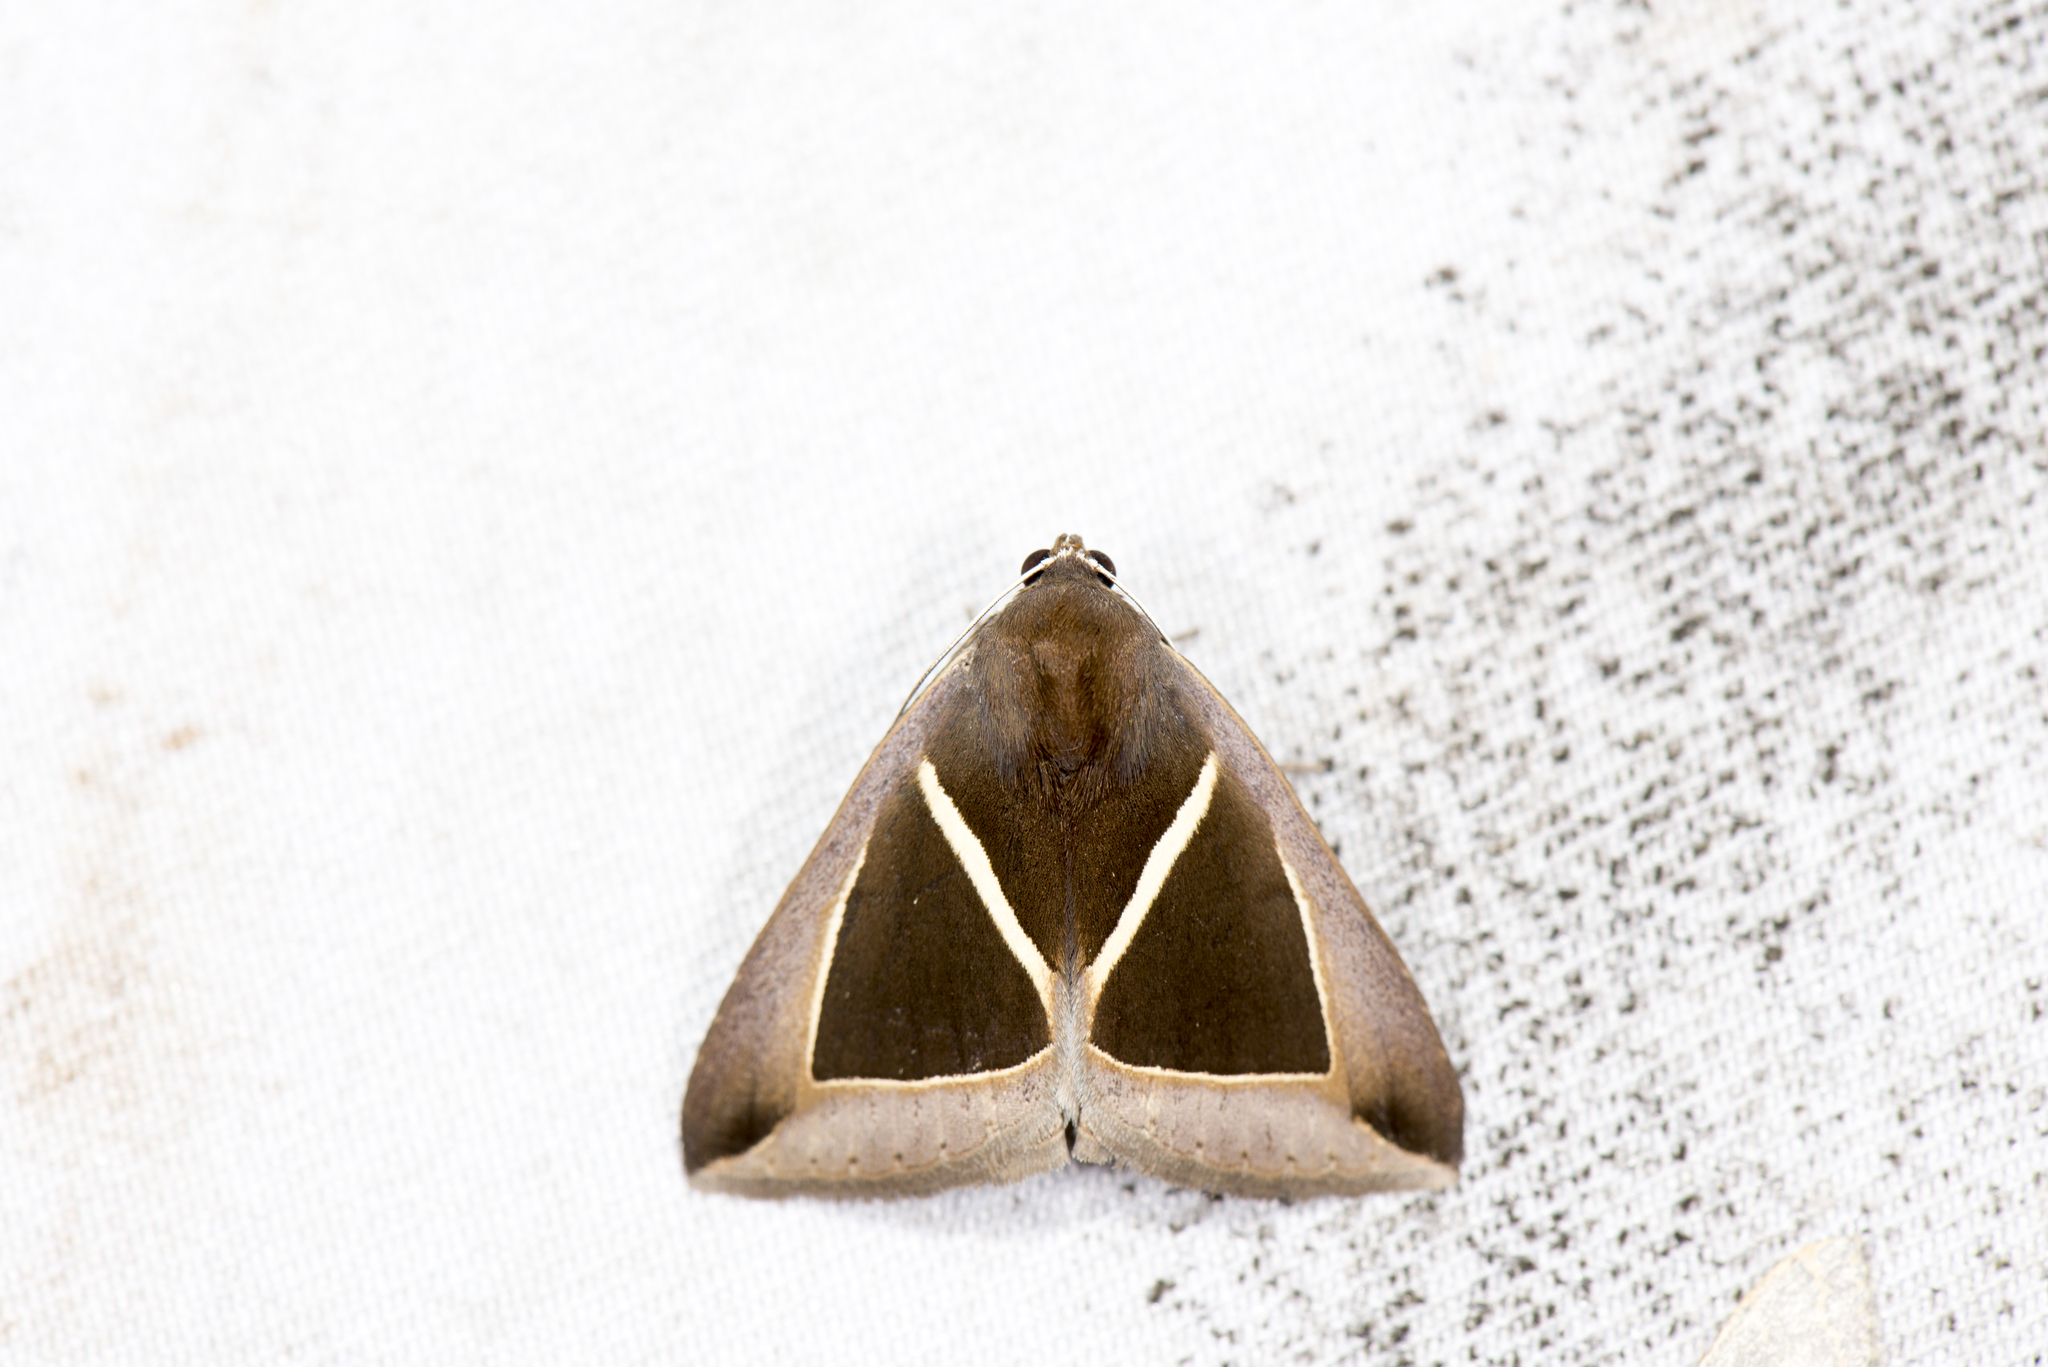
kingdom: Animalia
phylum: Arthropoda
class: Insecta
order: Lepidoptera
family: Erebidae
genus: Chalciope
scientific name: Chalciope mygdon
